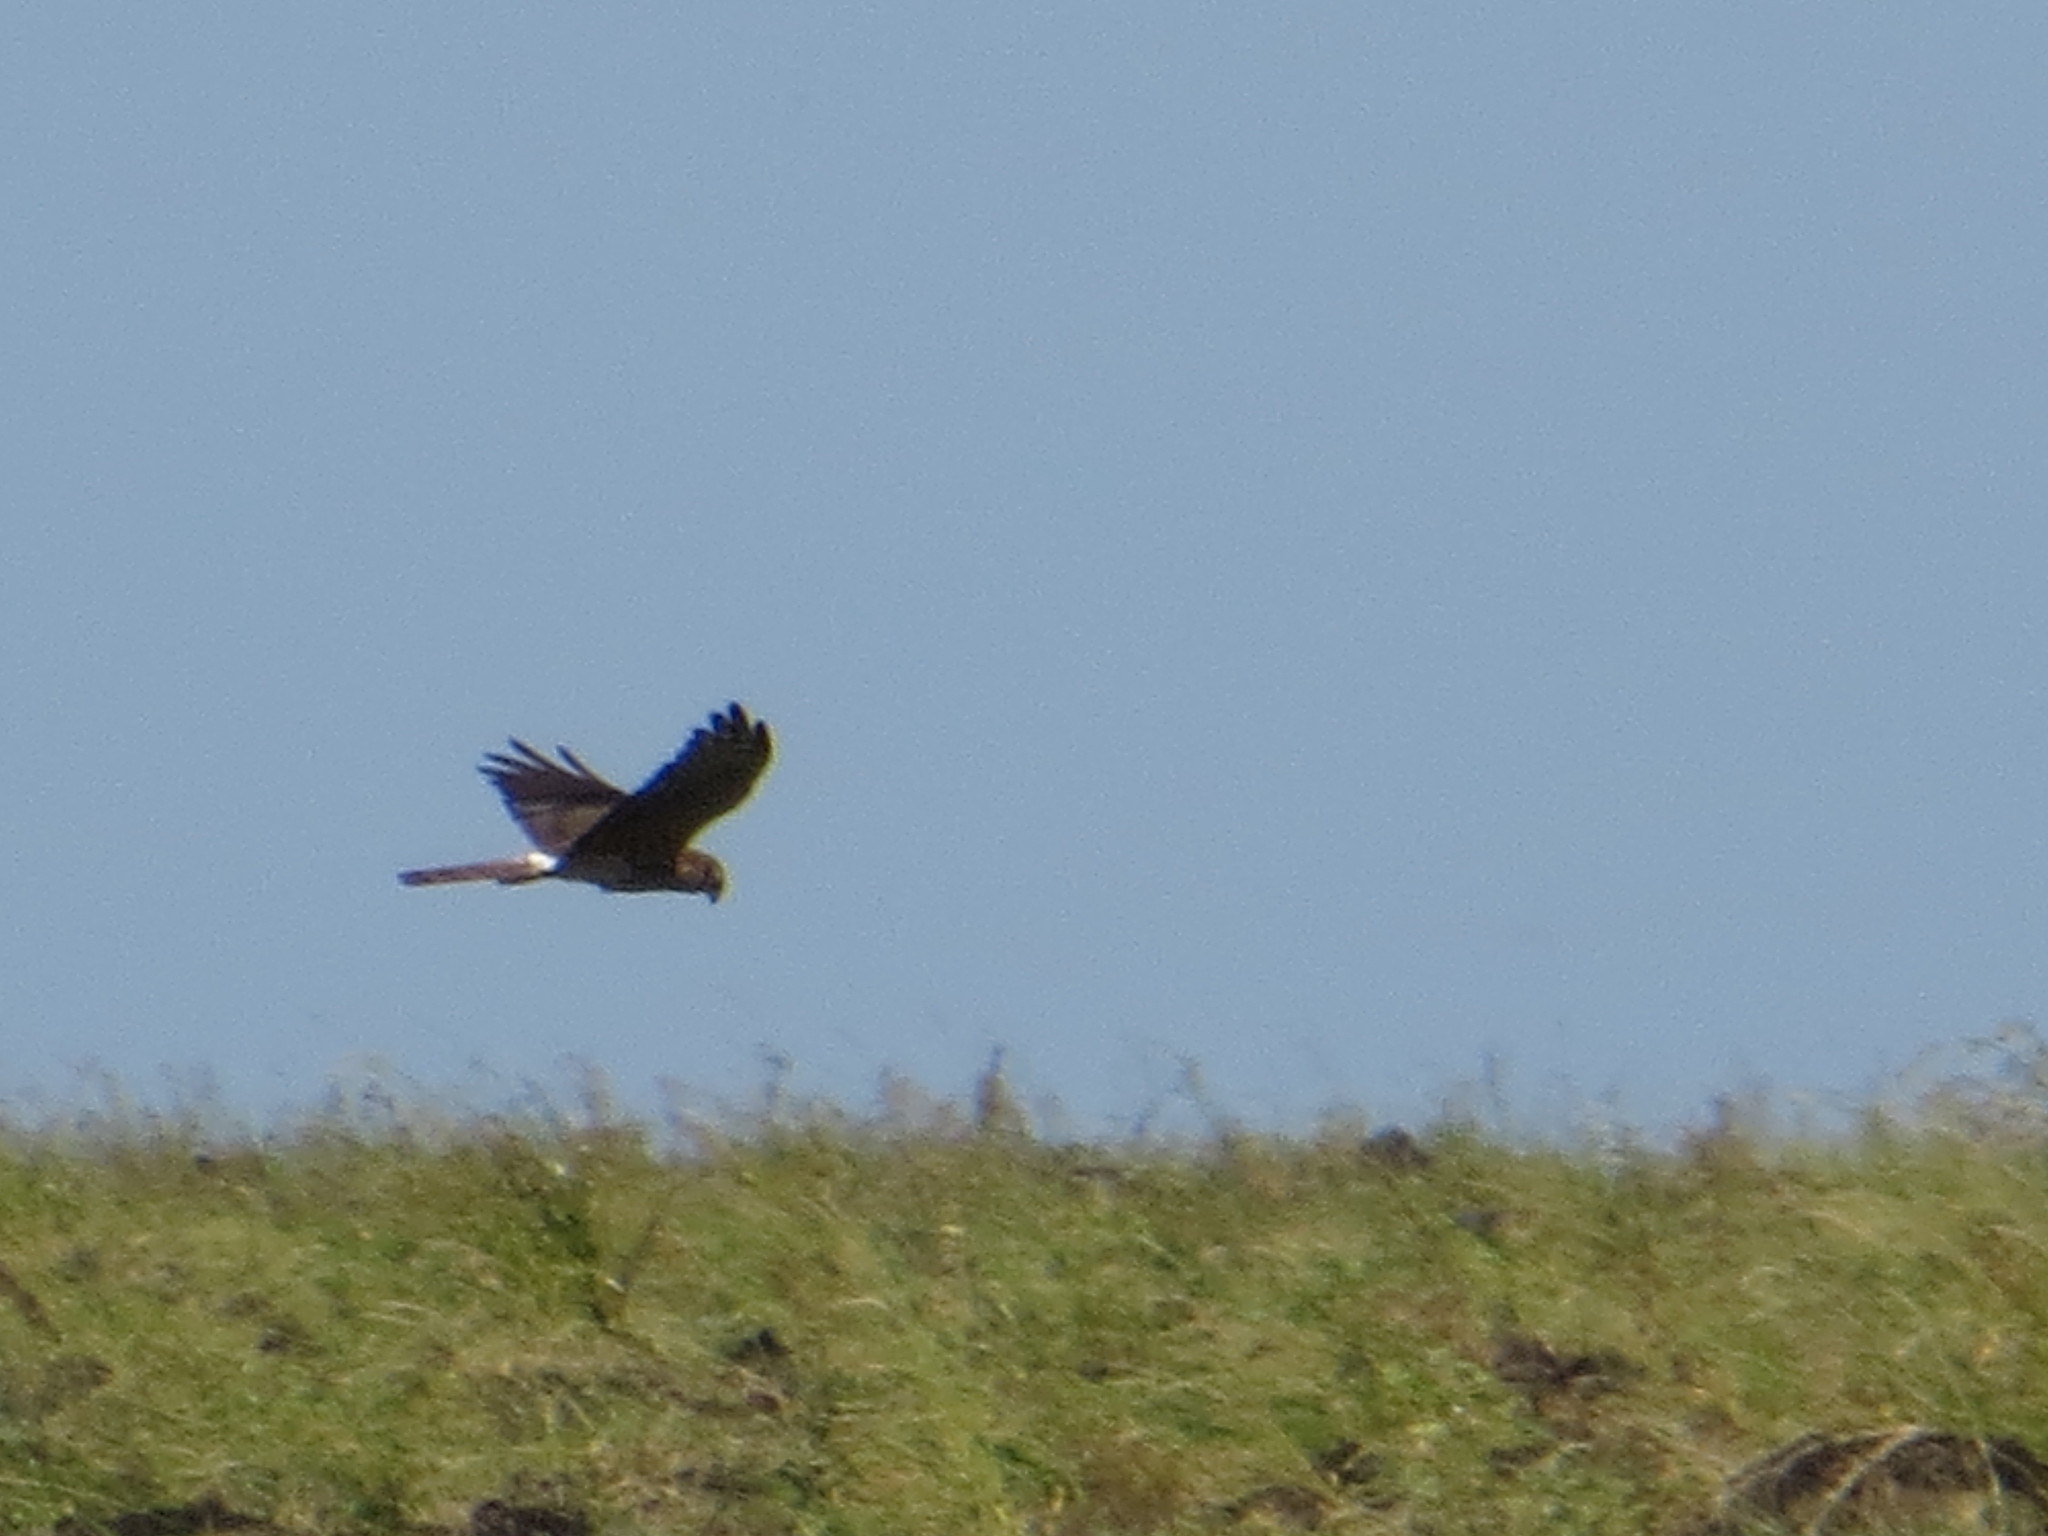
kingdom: Animalia
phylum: Chordata
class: Aves
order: Accipitriformes
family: Accipitridae
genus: Circus
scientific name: Circus pygargus
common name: Montagu's harrier
